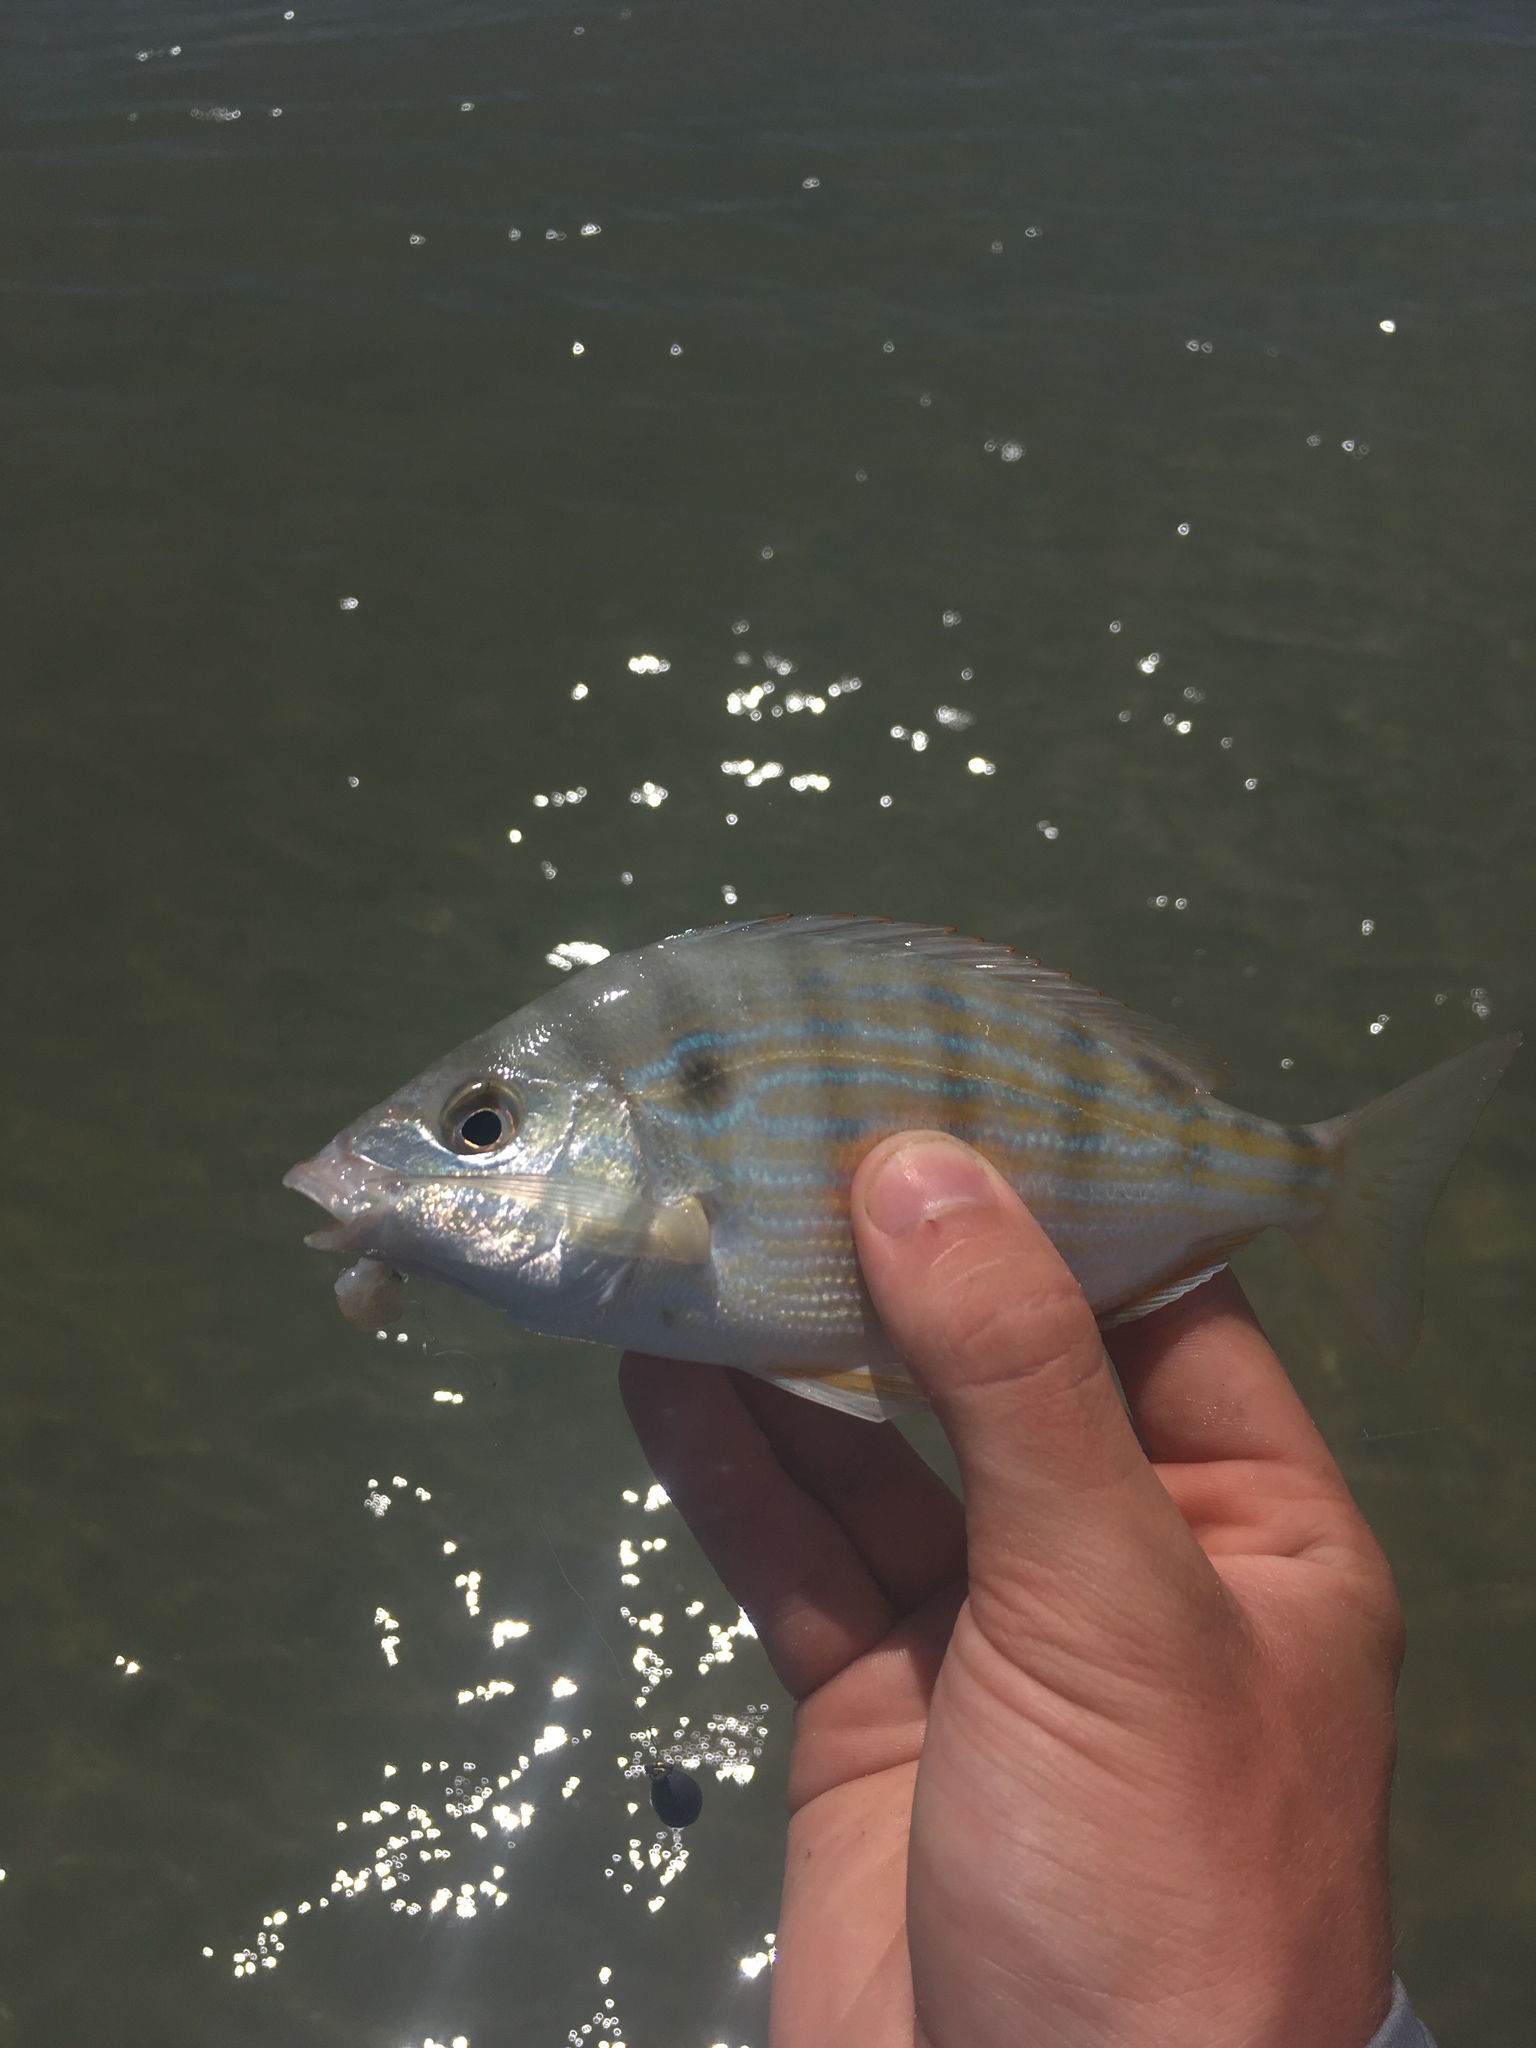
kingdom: Animalia
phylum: Chordata
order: Perciformes
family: Sparidae
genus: Lagodon
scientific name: Lagodon rhomboides
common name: Pinfish
